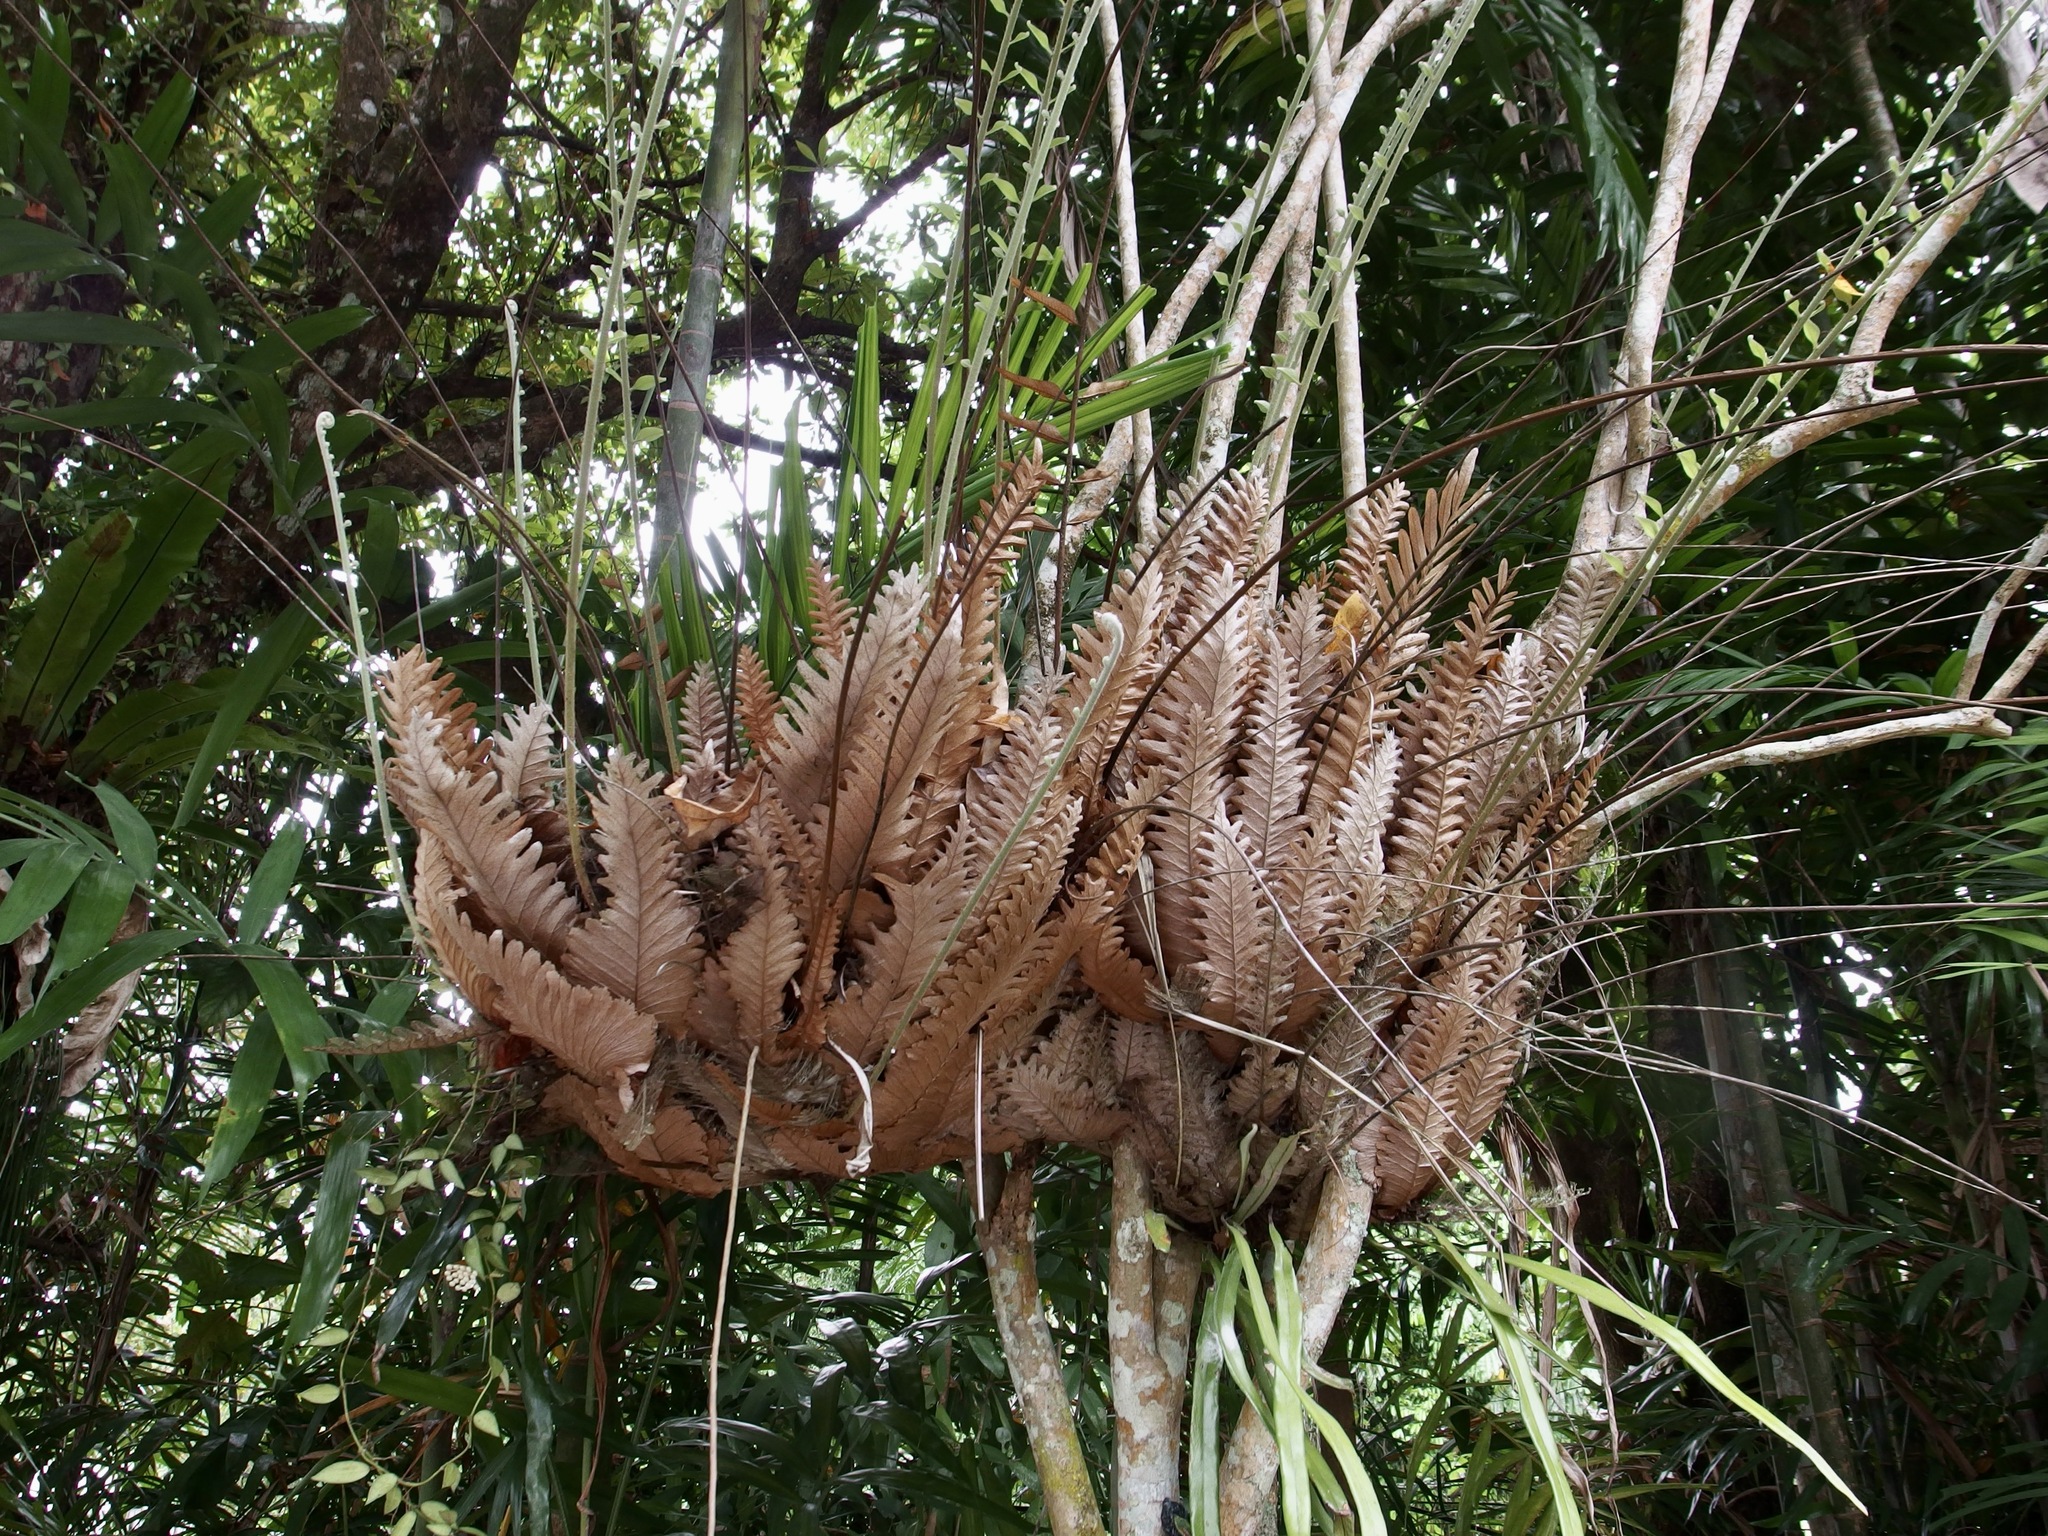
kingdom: Plantae
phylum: Tracheophyta
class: Polypodiopsida
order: Polypodiales
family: Polypodiaceae
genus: Drynaria
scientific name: Drynaria rigidula
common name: Basket fern
